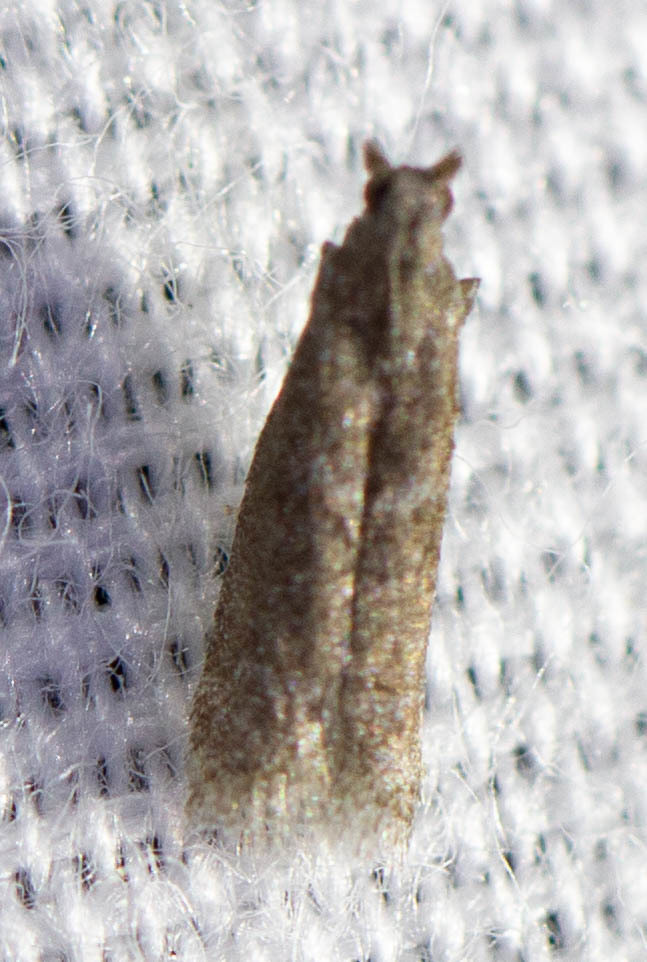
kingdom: Animalia
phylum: Arthropoda
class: Insecta
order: Lepidoptera
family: Pyralidae
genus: Cabnia
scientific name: Cabnia myronella
